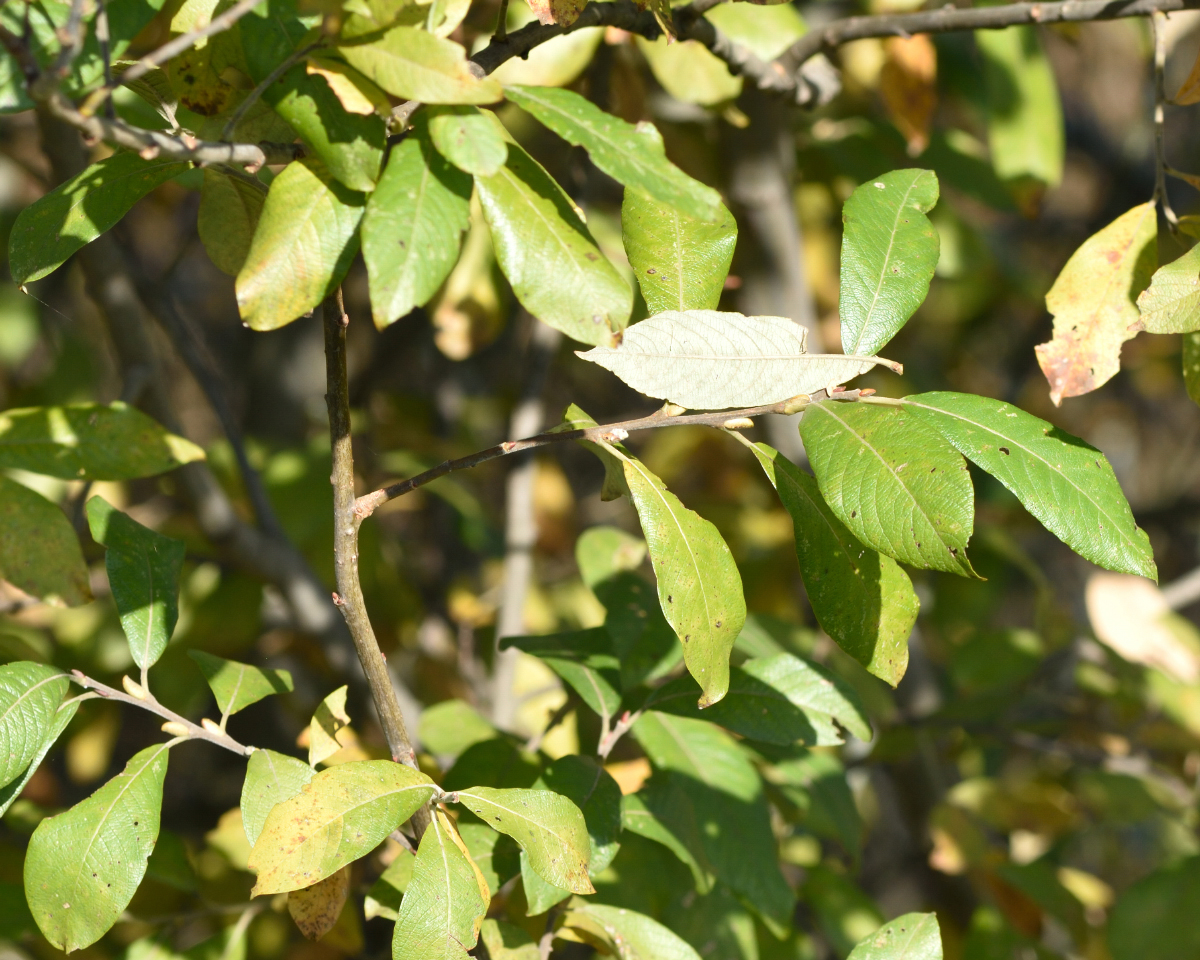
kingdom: Plantae
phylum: Tracheophyta
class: Magnoliopsida
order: Malpighiales
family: Salicaceae
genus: Salix
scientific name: Salix caprea
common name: Goat willow
